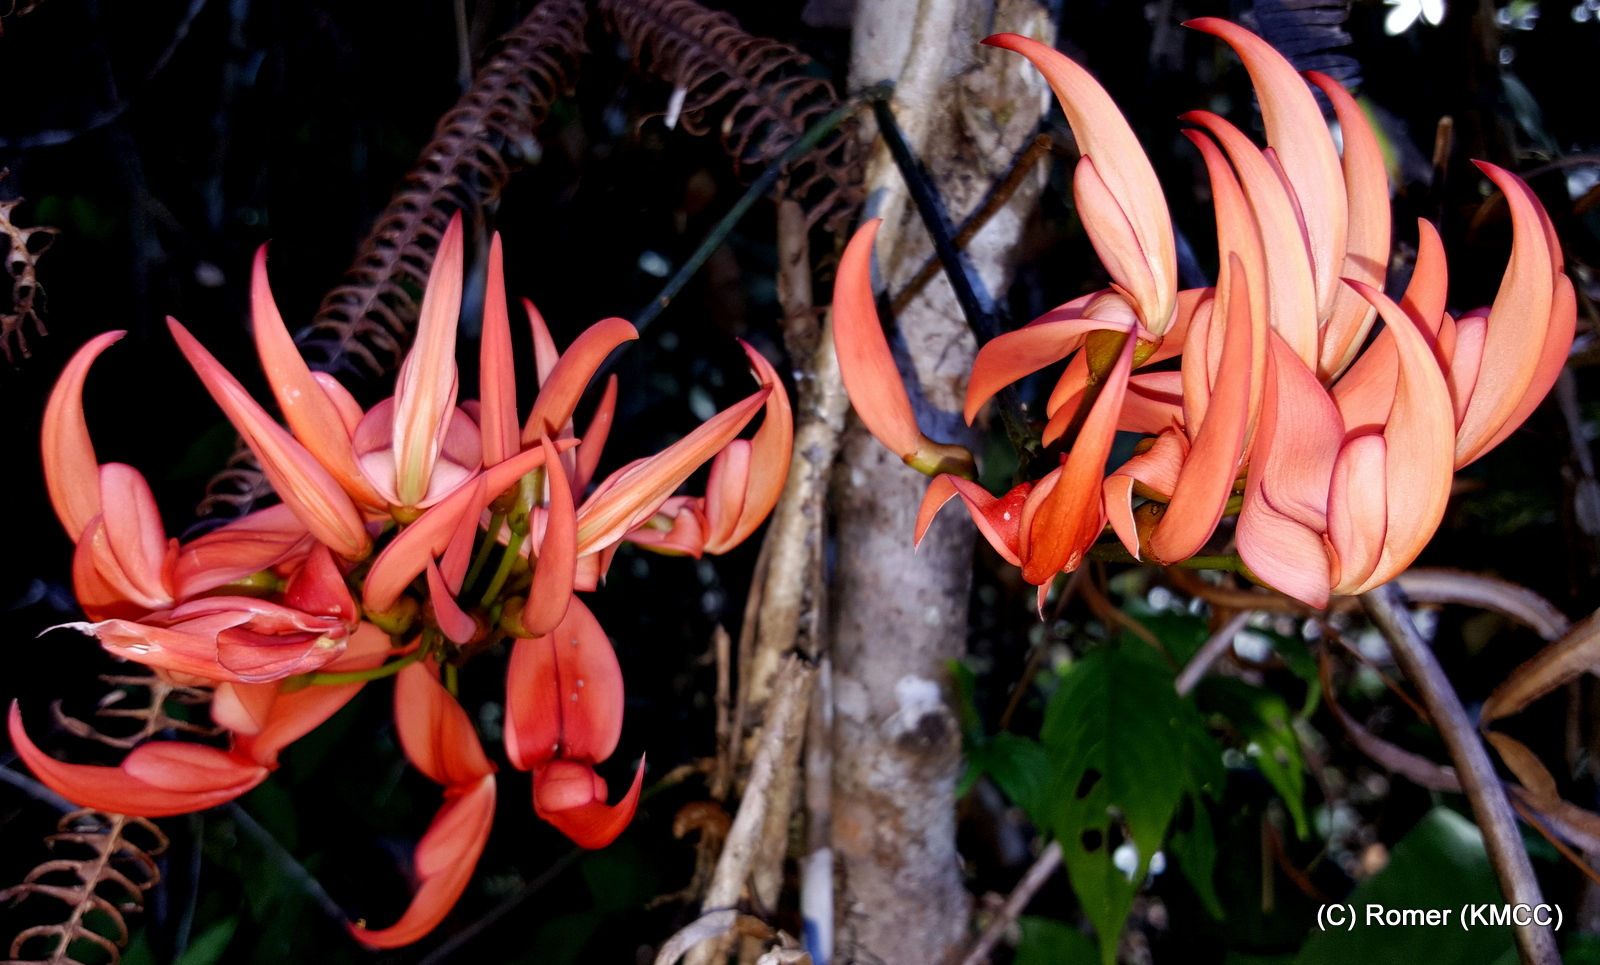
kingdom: Plantae
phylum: Tracheophyta
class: Magnoliopsida
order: Fabales
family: Fabaceae
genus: Strongylodon
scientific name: Strongylodon madagascariensis
